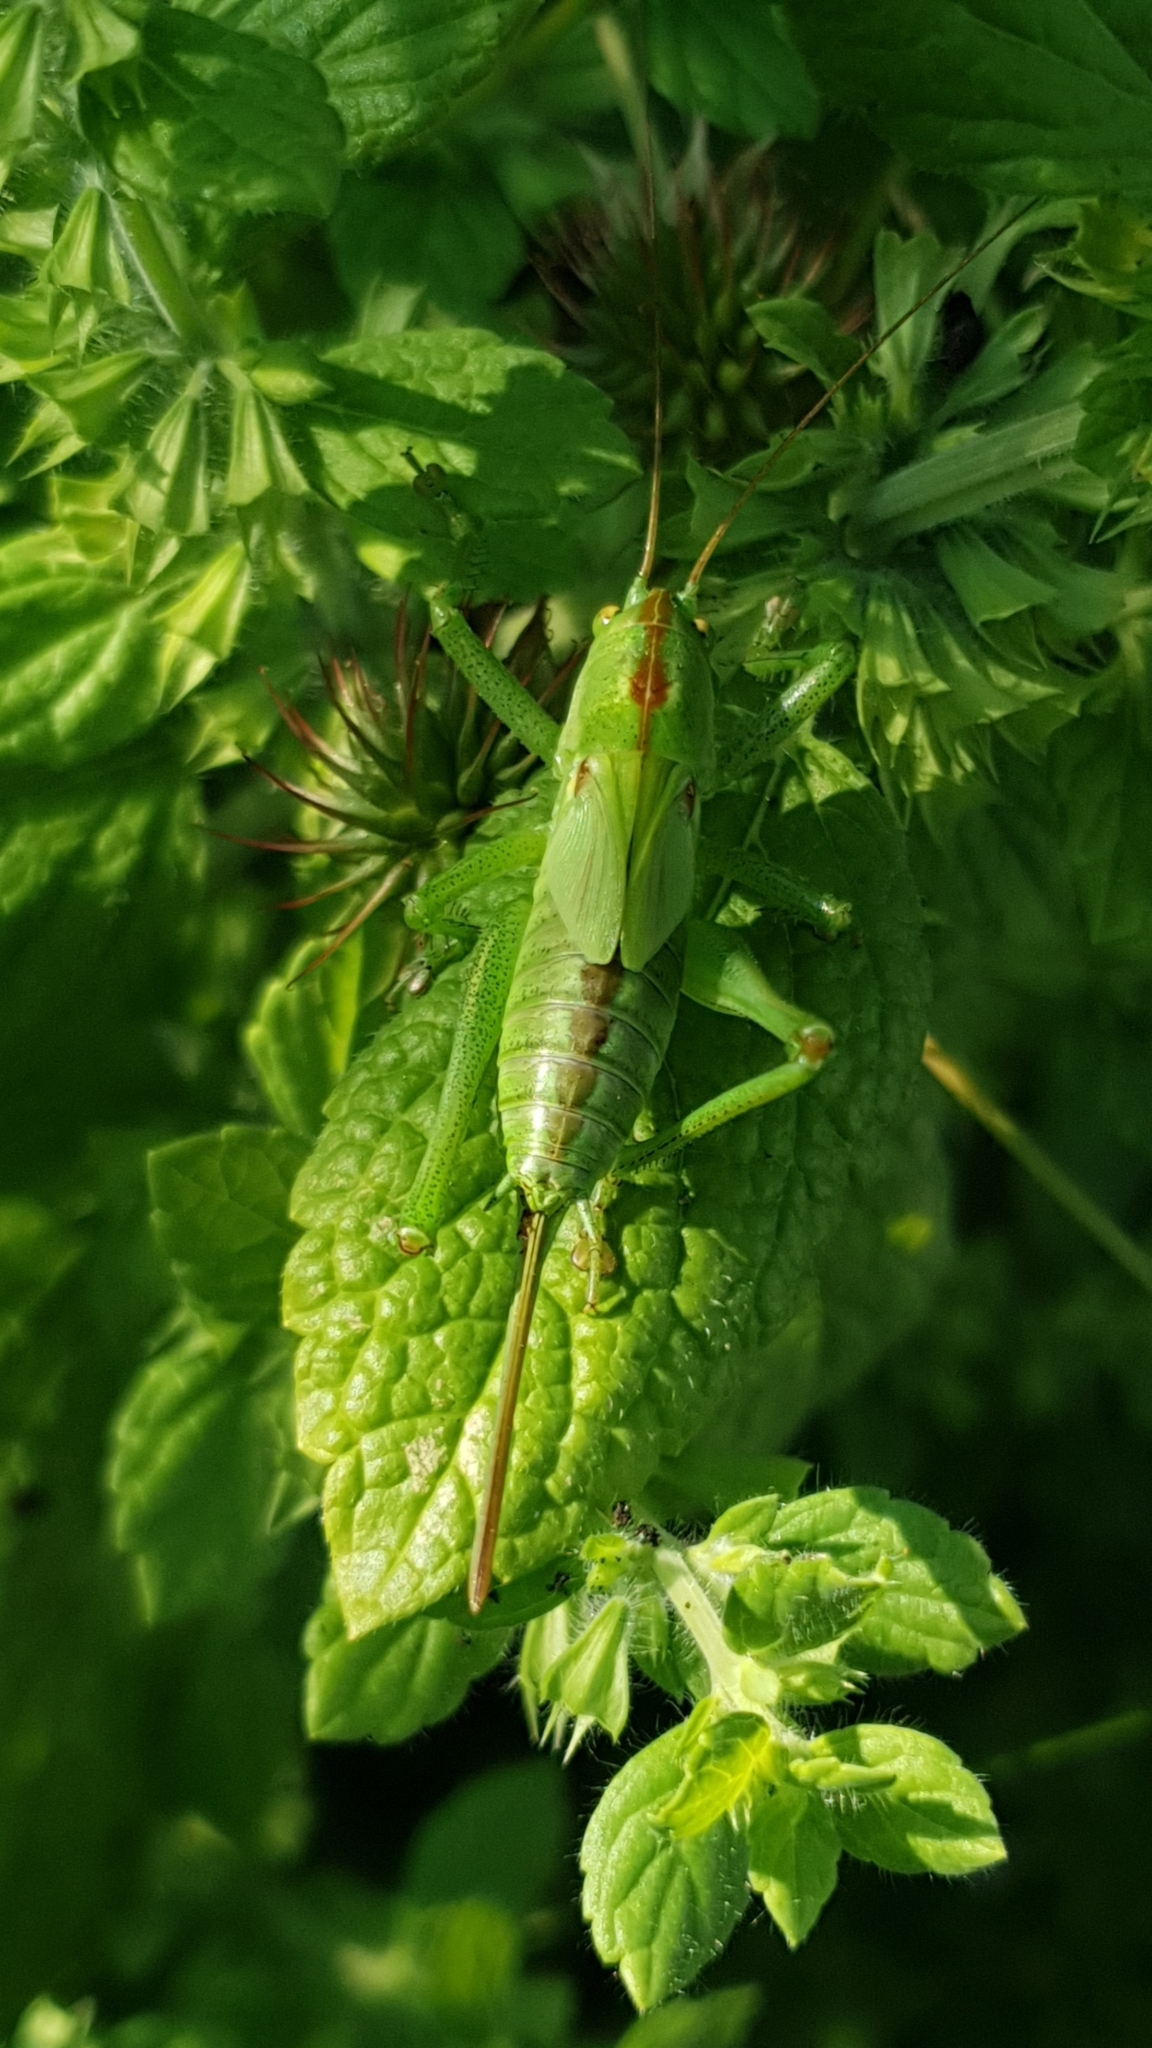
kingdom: Animalia
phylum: Arthropoda
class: Insecta
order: Orthoptera
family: Tettigoniidae
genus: Tettigonia
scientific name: Tettigonia viridissima
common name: Great green bush-cricket
